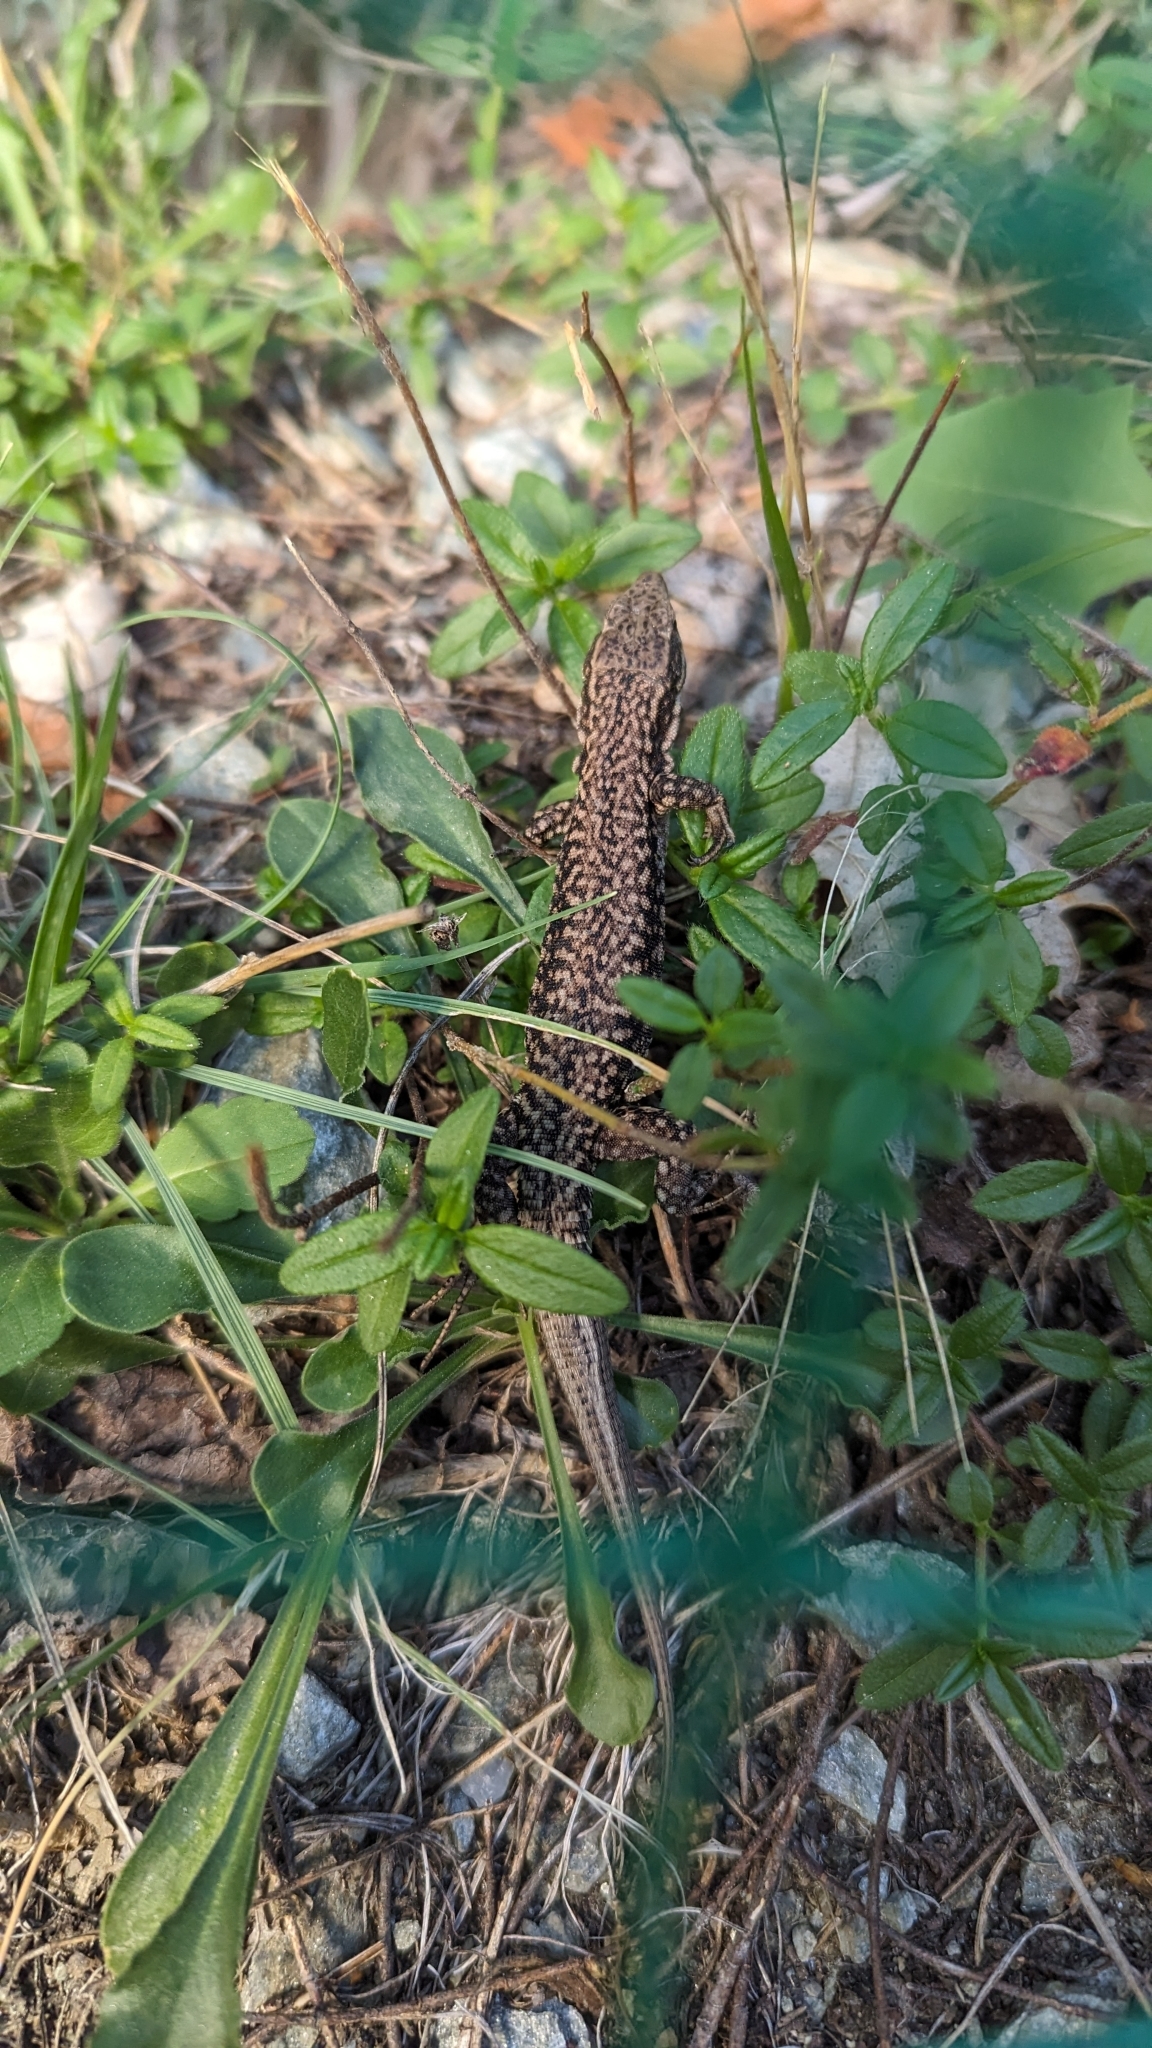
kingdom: Animalia
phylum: Chordata
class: Squamata
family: Lacertidae
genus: Podarcis
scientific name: Podarcis muralis
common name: Common wall lizard
